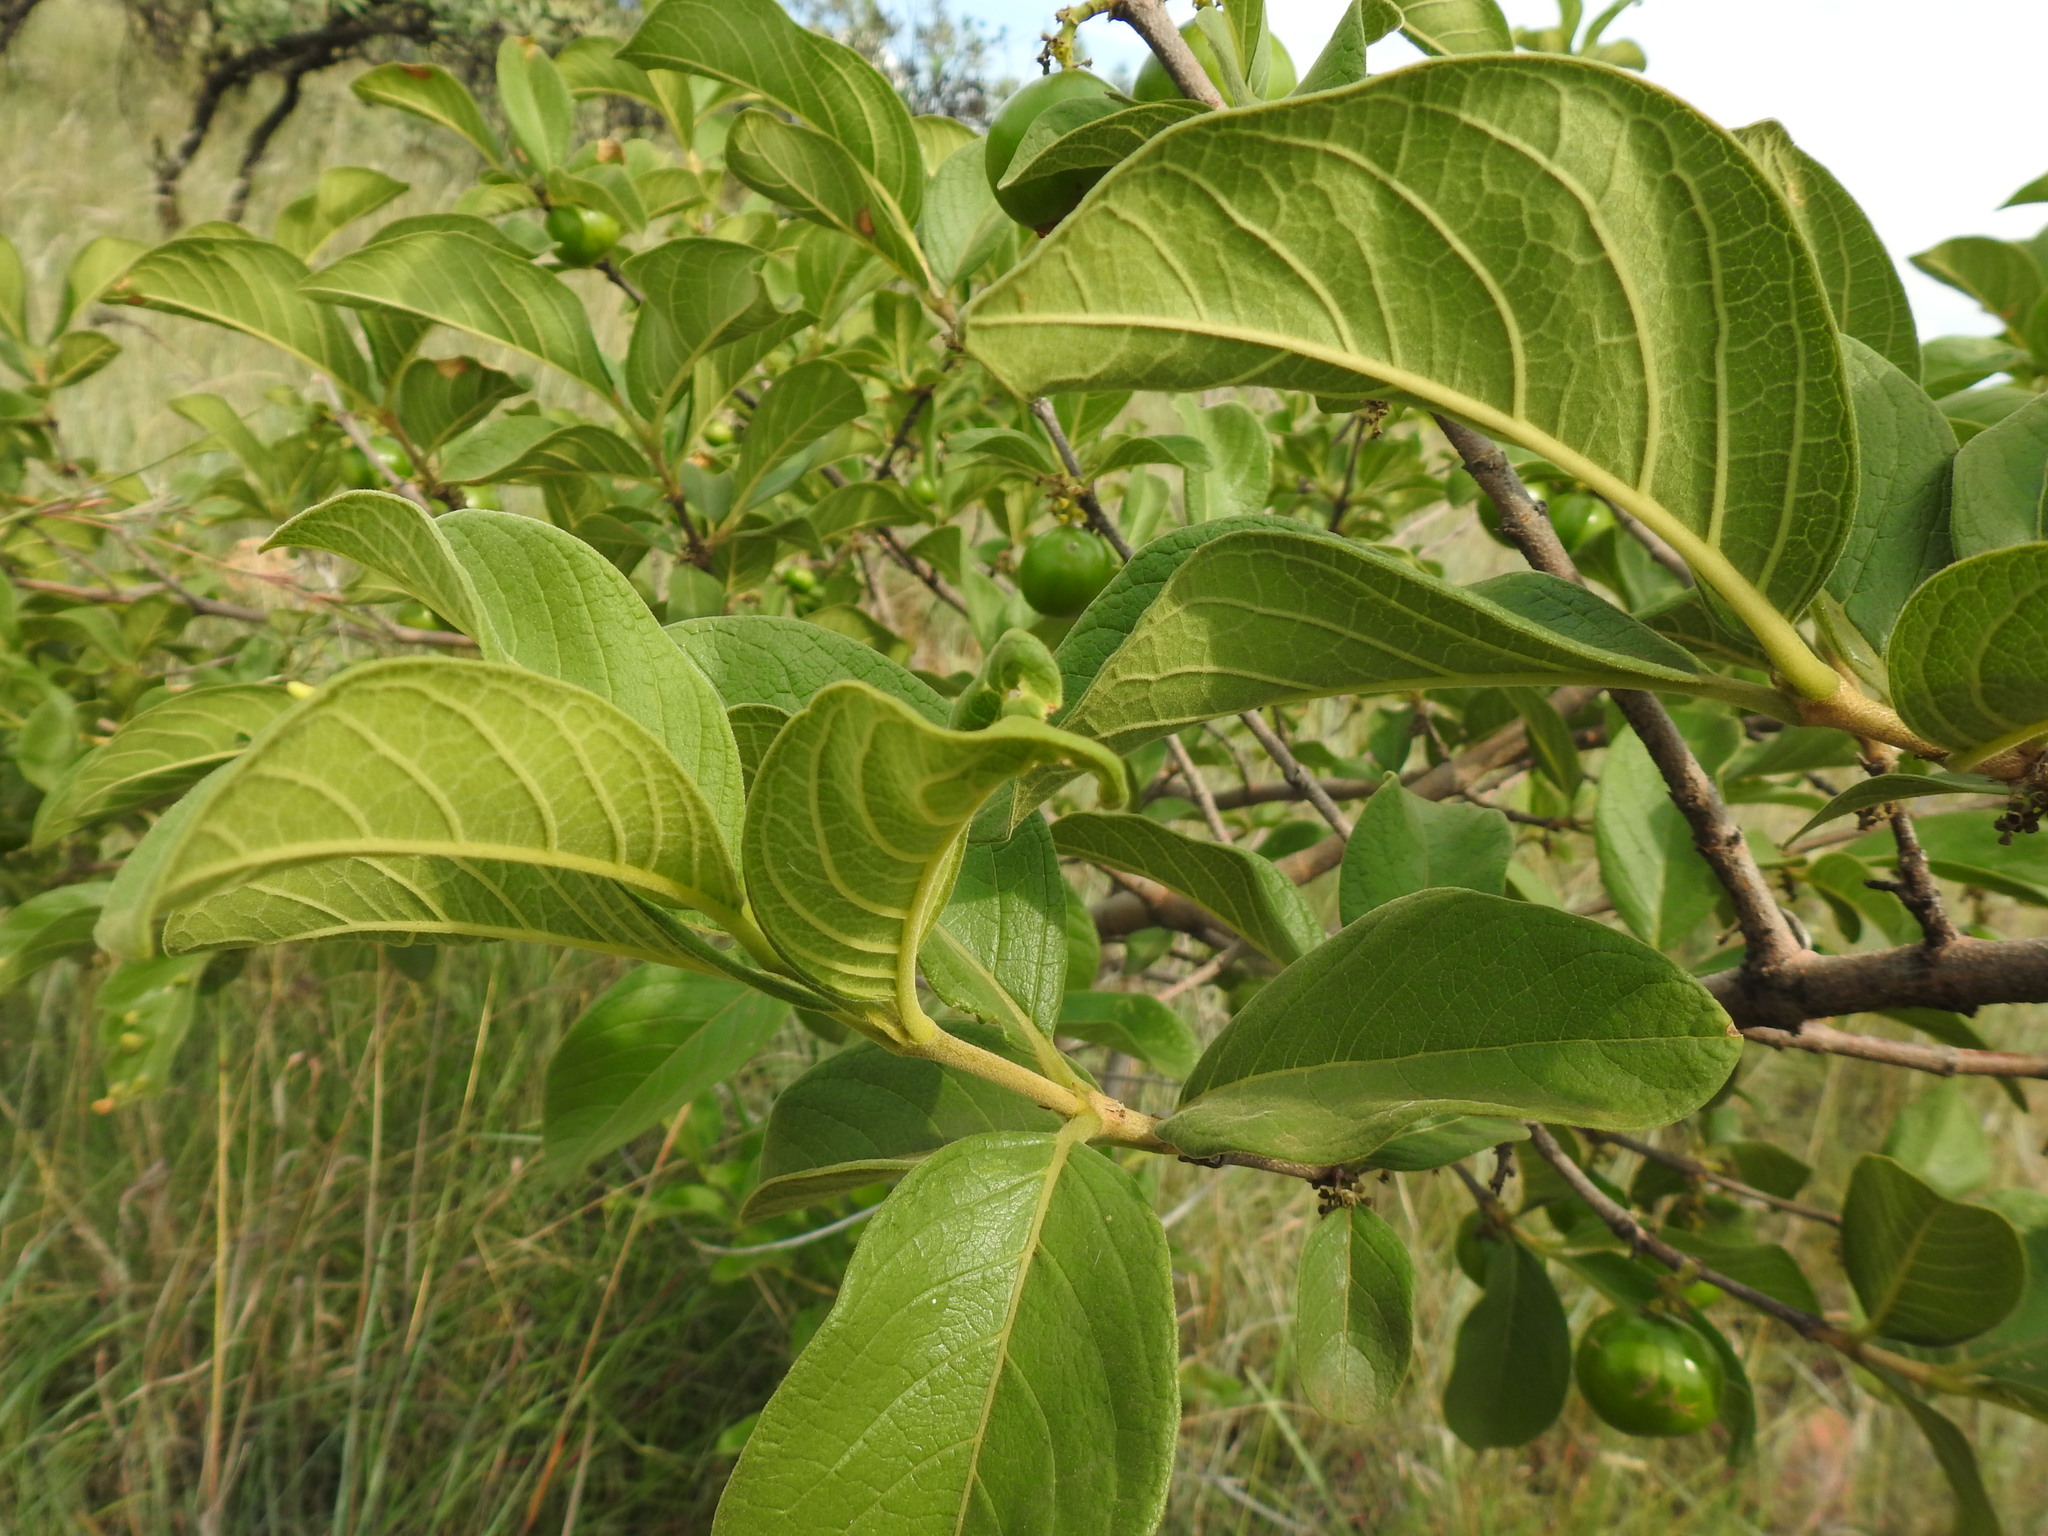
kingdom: Plantae
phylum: Tracheophyta
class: Magnoliopsida
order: Gentianales
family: Rubiaceae
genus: Vangueria
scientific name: Vangueria infausta
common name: Medlar
